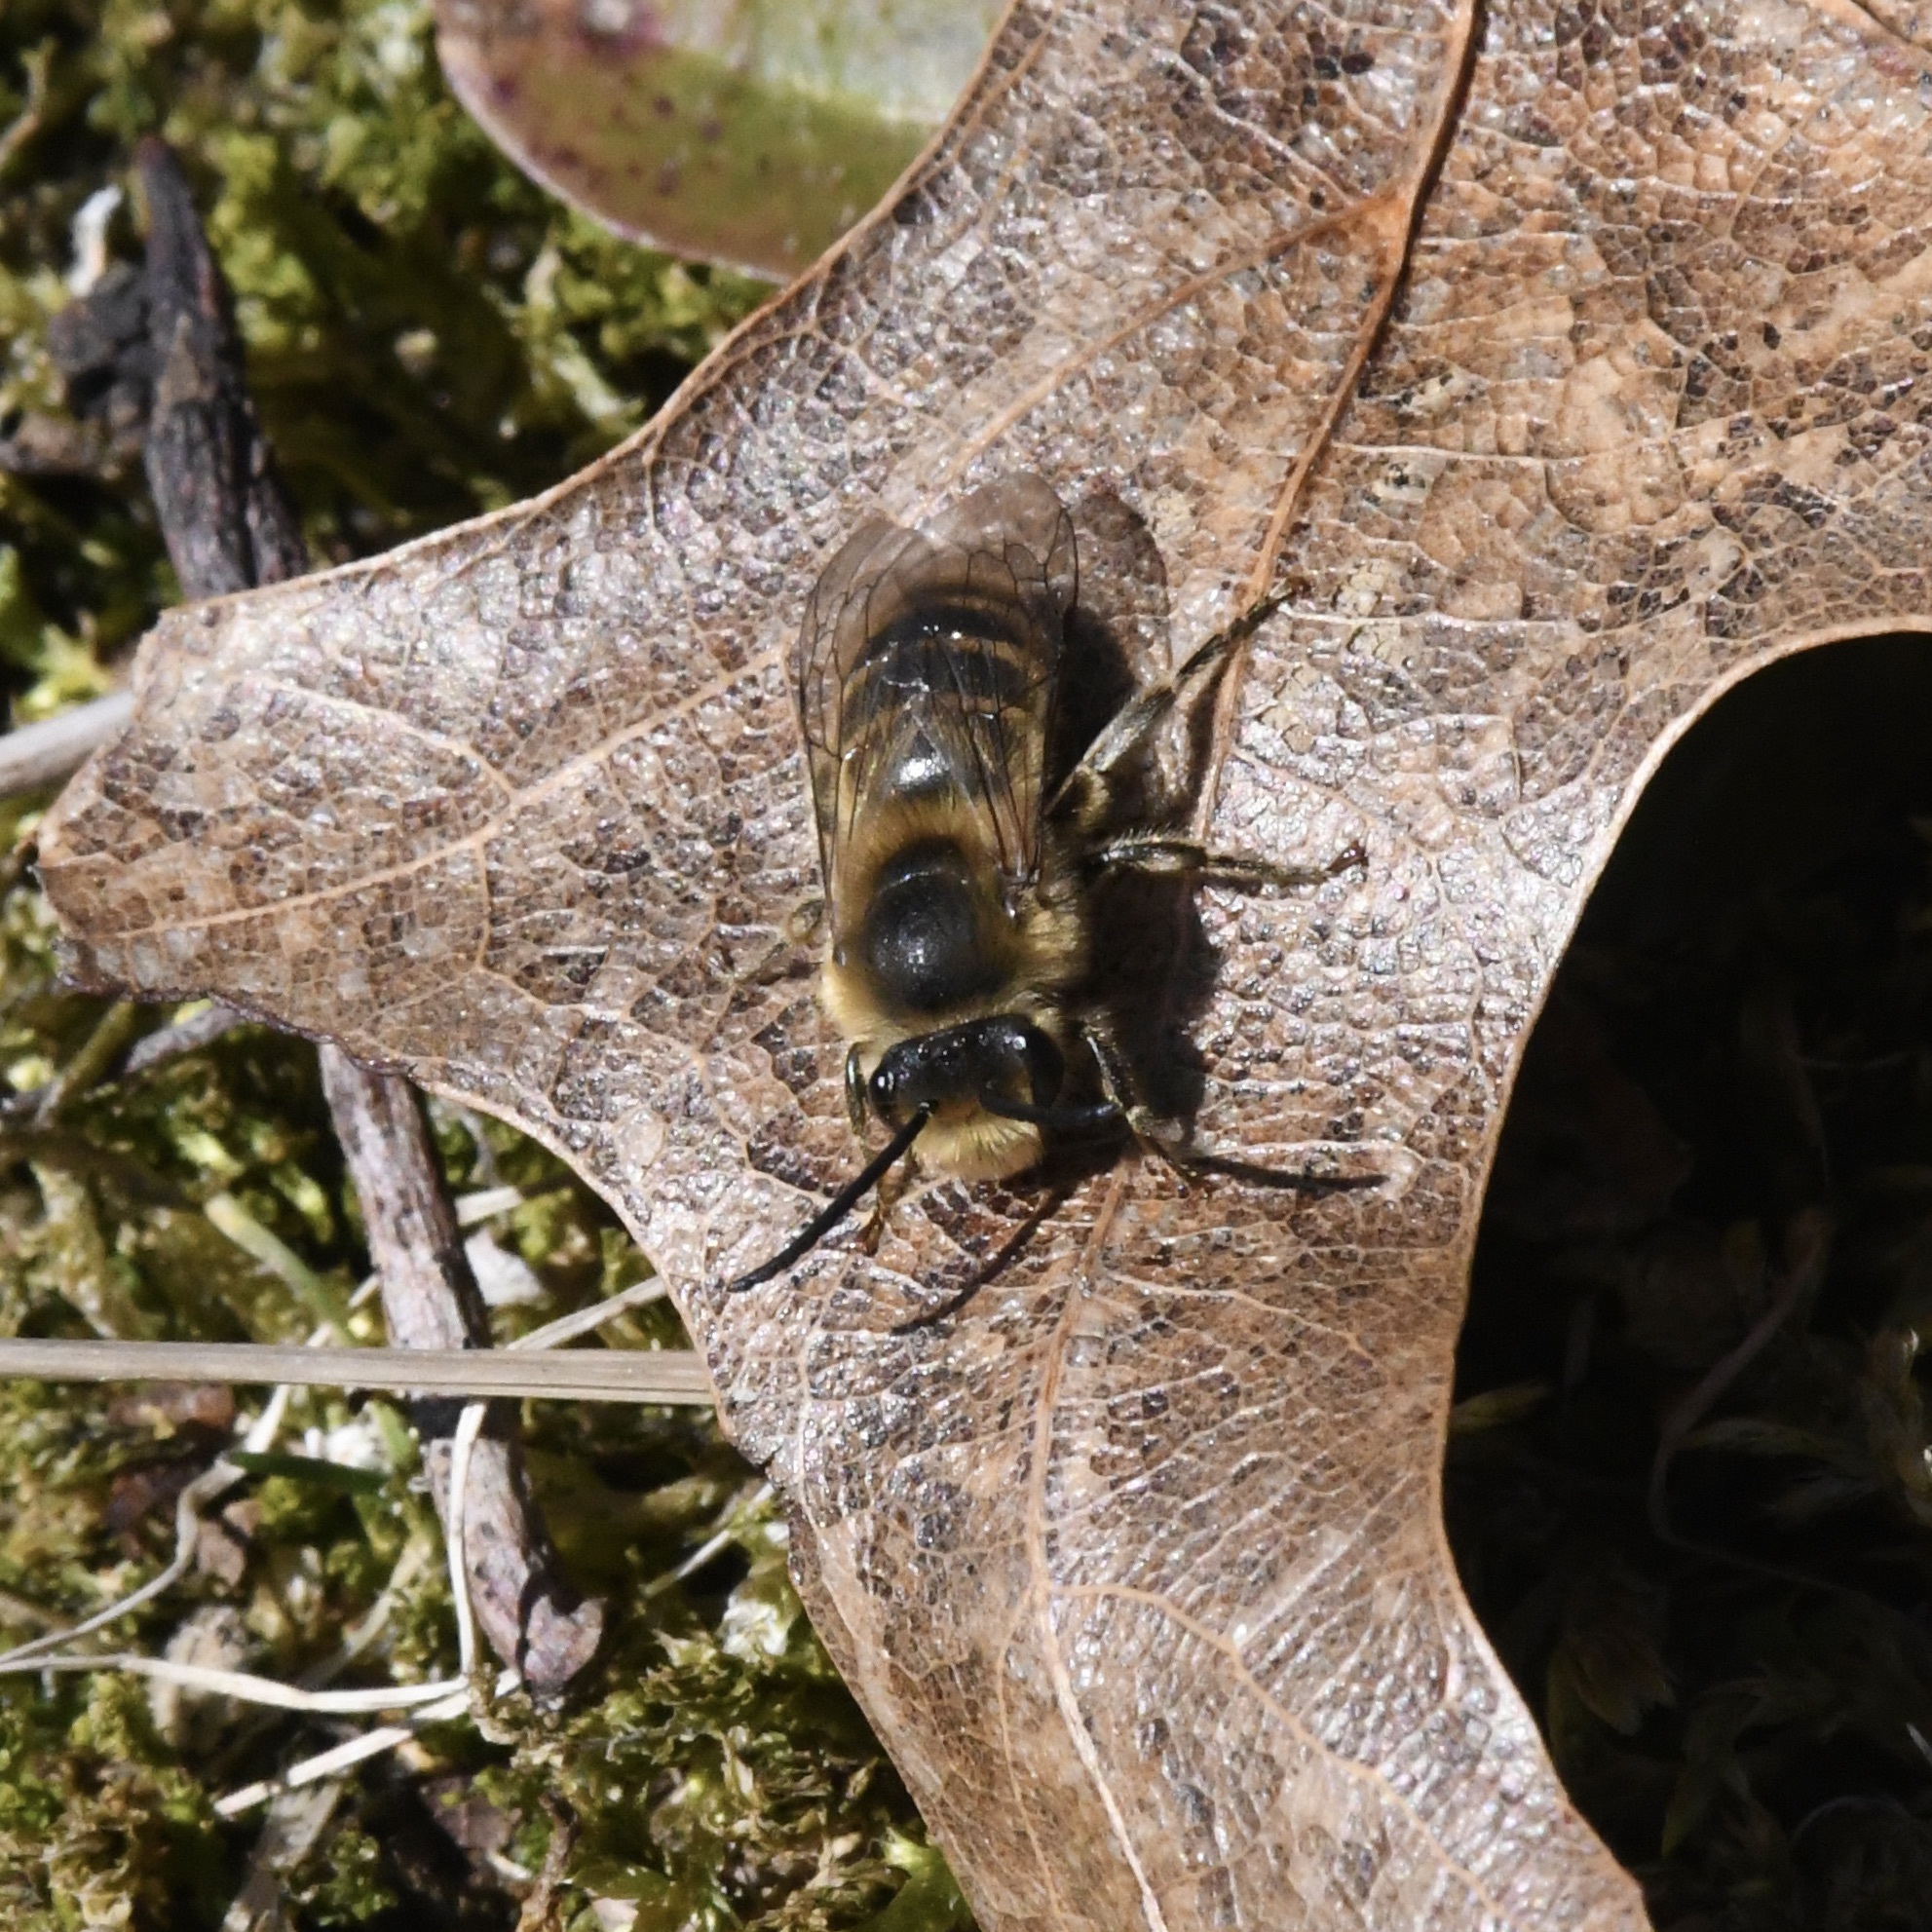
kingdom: Animalia
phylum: Arthropoda
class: Insecta
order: Hymenoptera
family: Colletidae
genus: Colletes
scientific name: Colletes inaequalis
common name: Unequal cellophane bee
